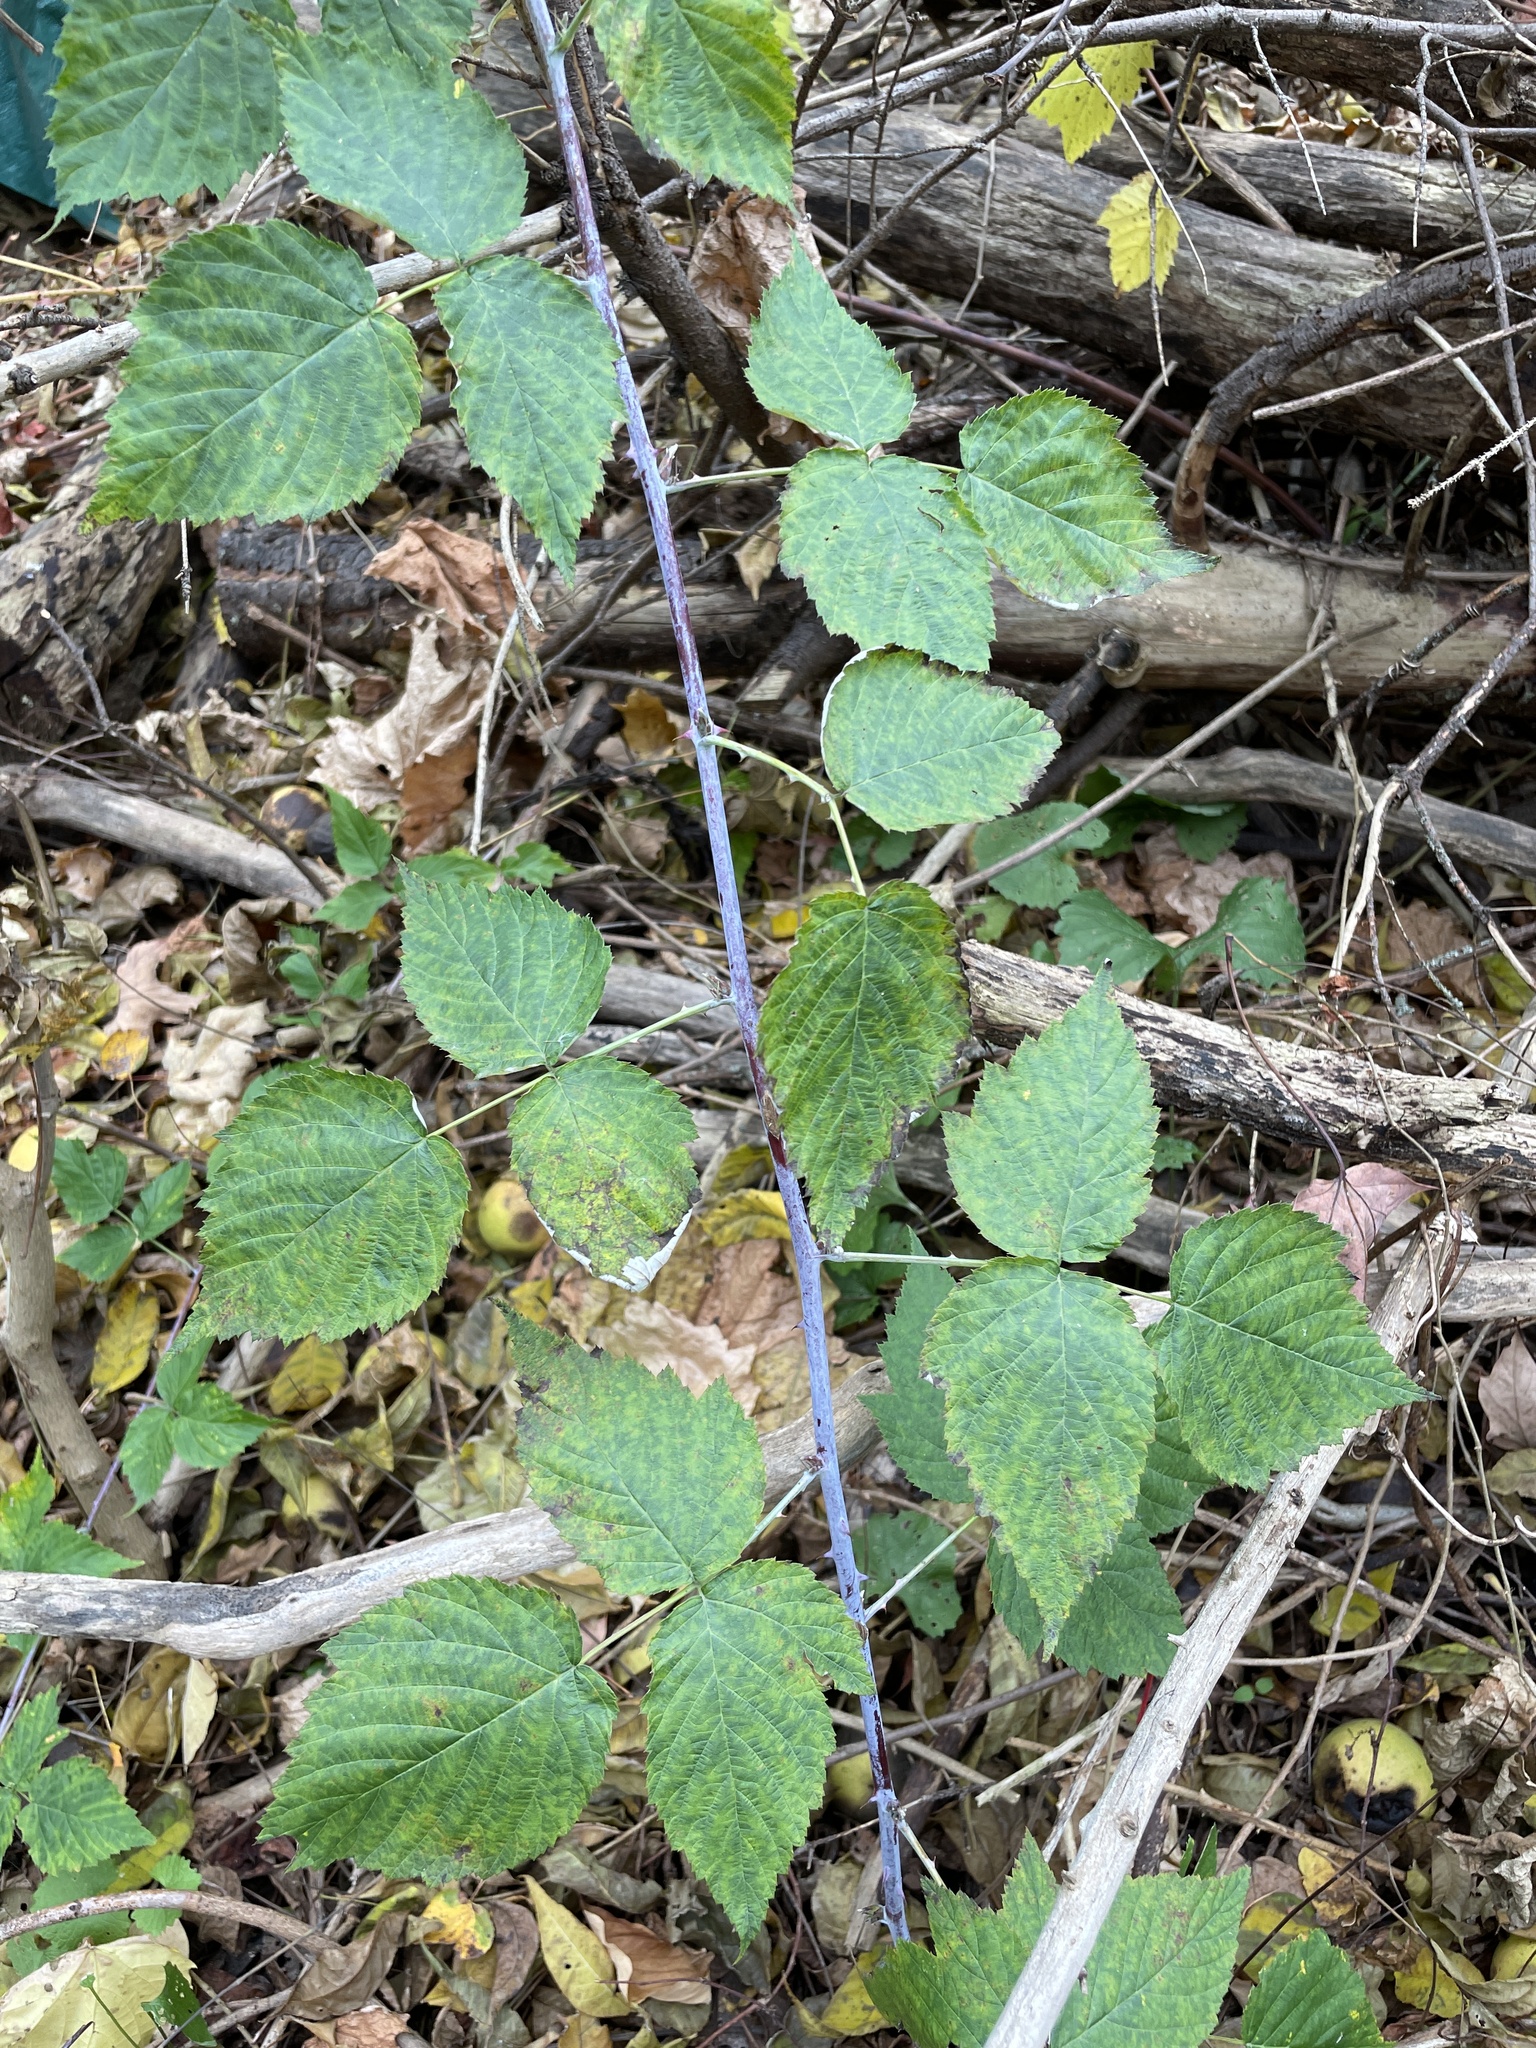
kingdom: Plantae
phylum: Tracheophyta
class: Magnoliopsida
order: Rosales
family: Rosaceae
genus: Rubus
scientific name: Rubus occidentalis
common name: Black raspberry
